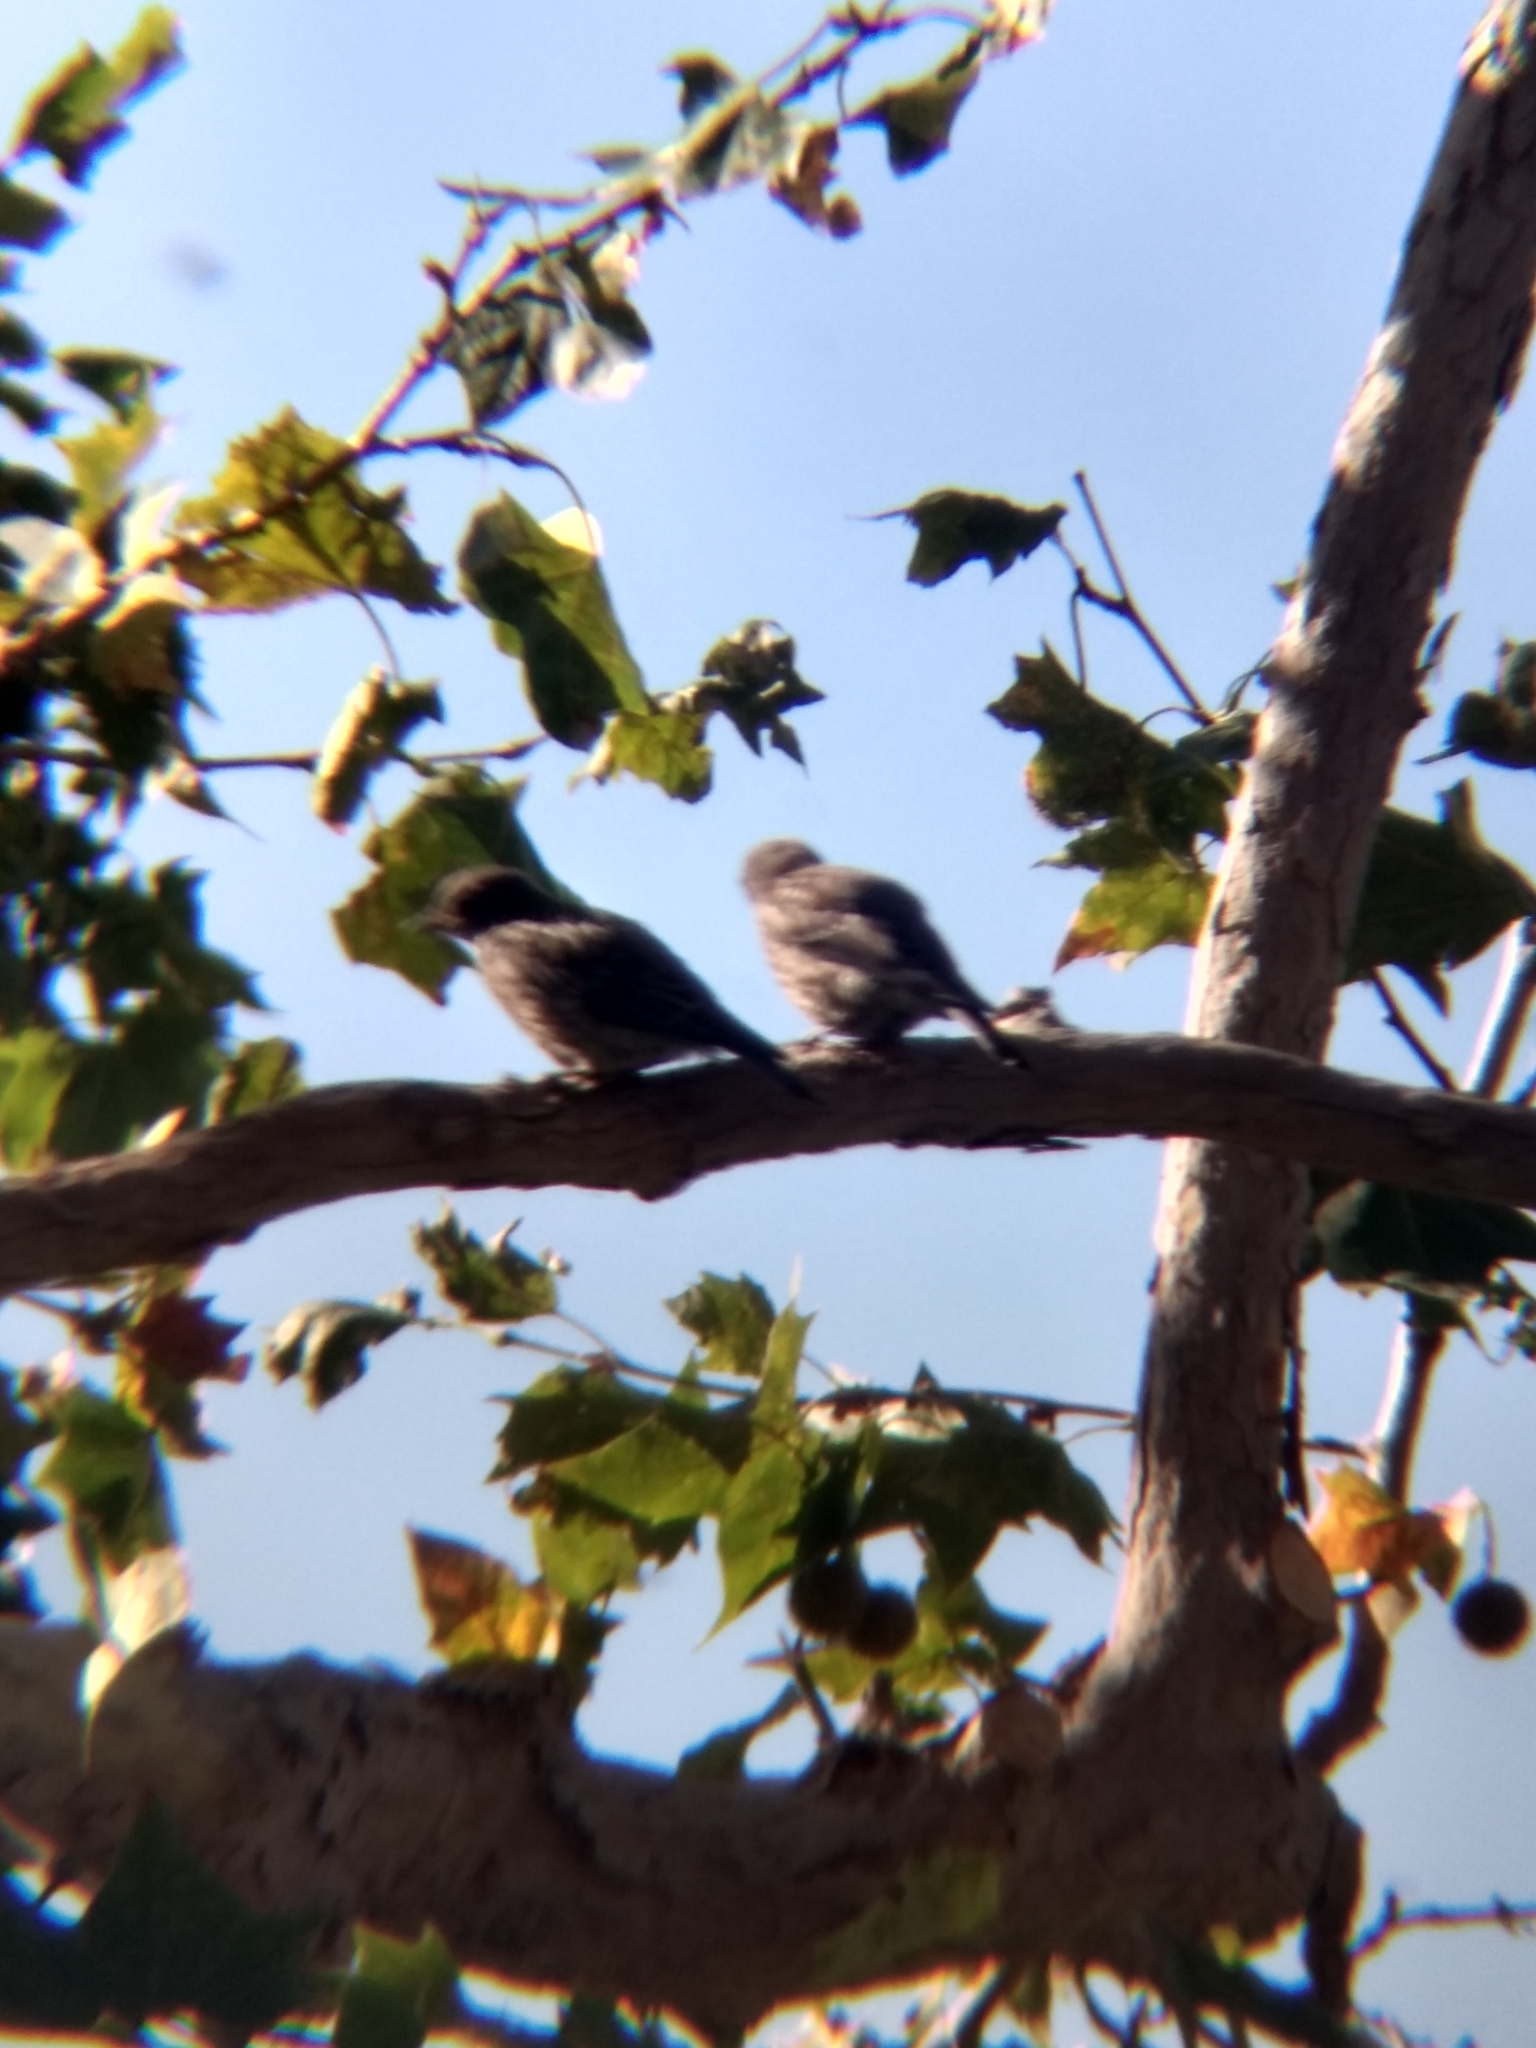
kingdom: Animalia
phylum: Chordata
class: Aves
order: Passeriformes
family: Turdidae
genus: Sialia
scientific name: Sialia mexicana
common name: Western bluebird
